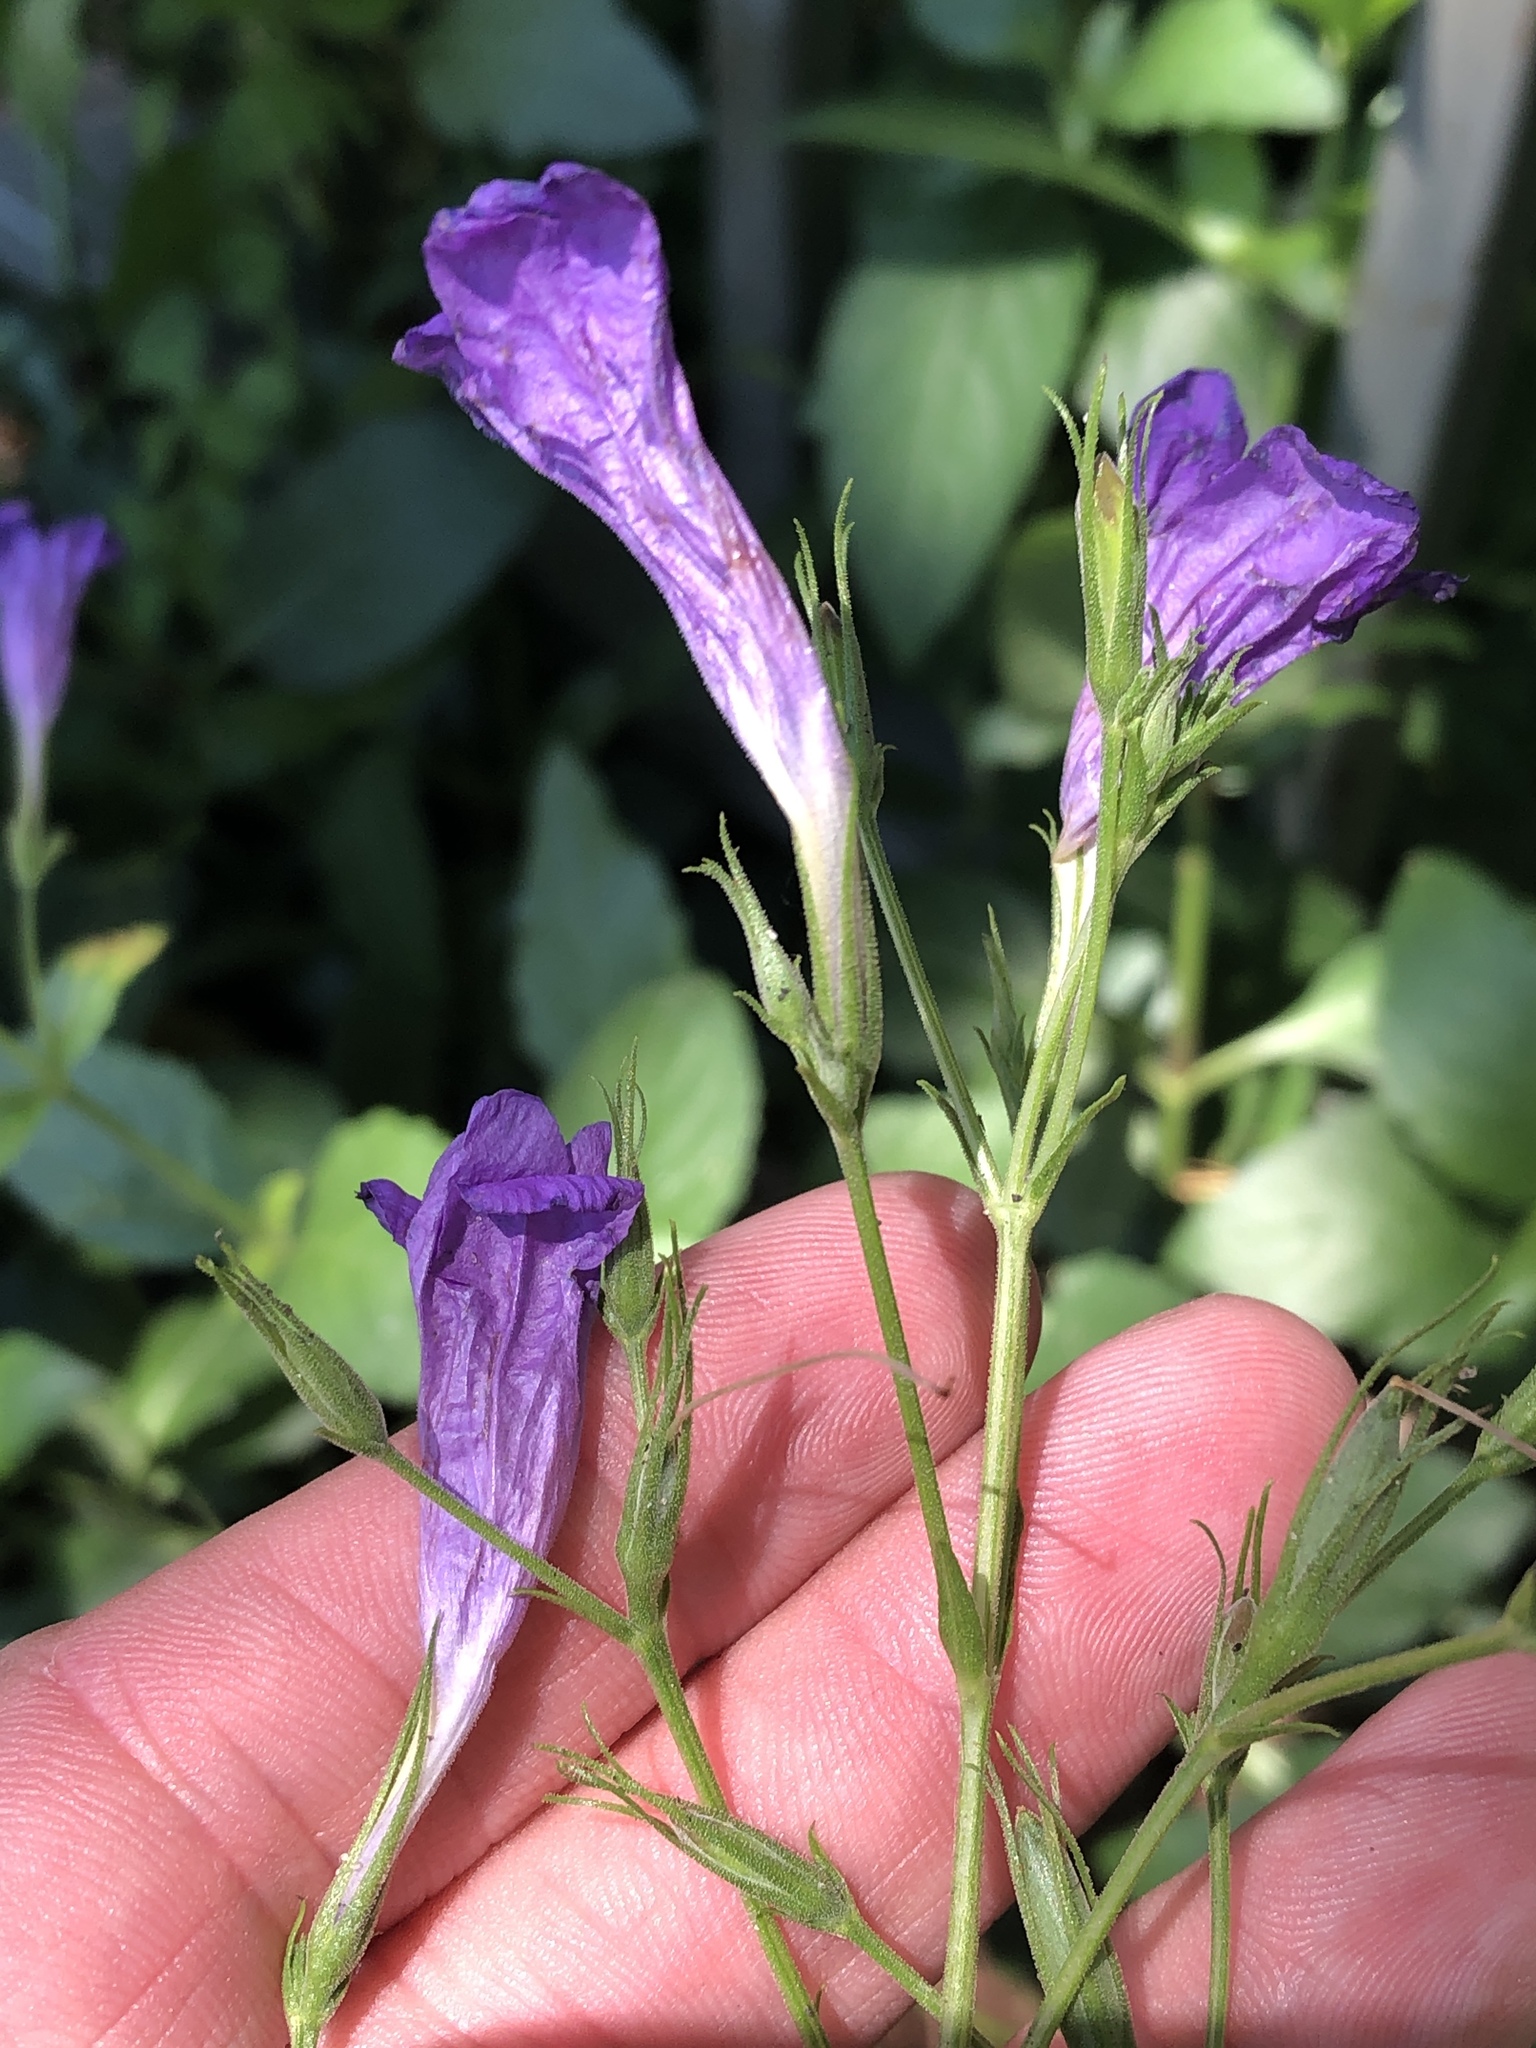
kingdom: Plantae
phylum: Tracheophyta
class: Magnoliopsida
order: Lamiales
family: Acanthaceae
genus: Ruellia
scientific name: Ruellia ciliatiflora
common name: Hairyflower wild petunia
